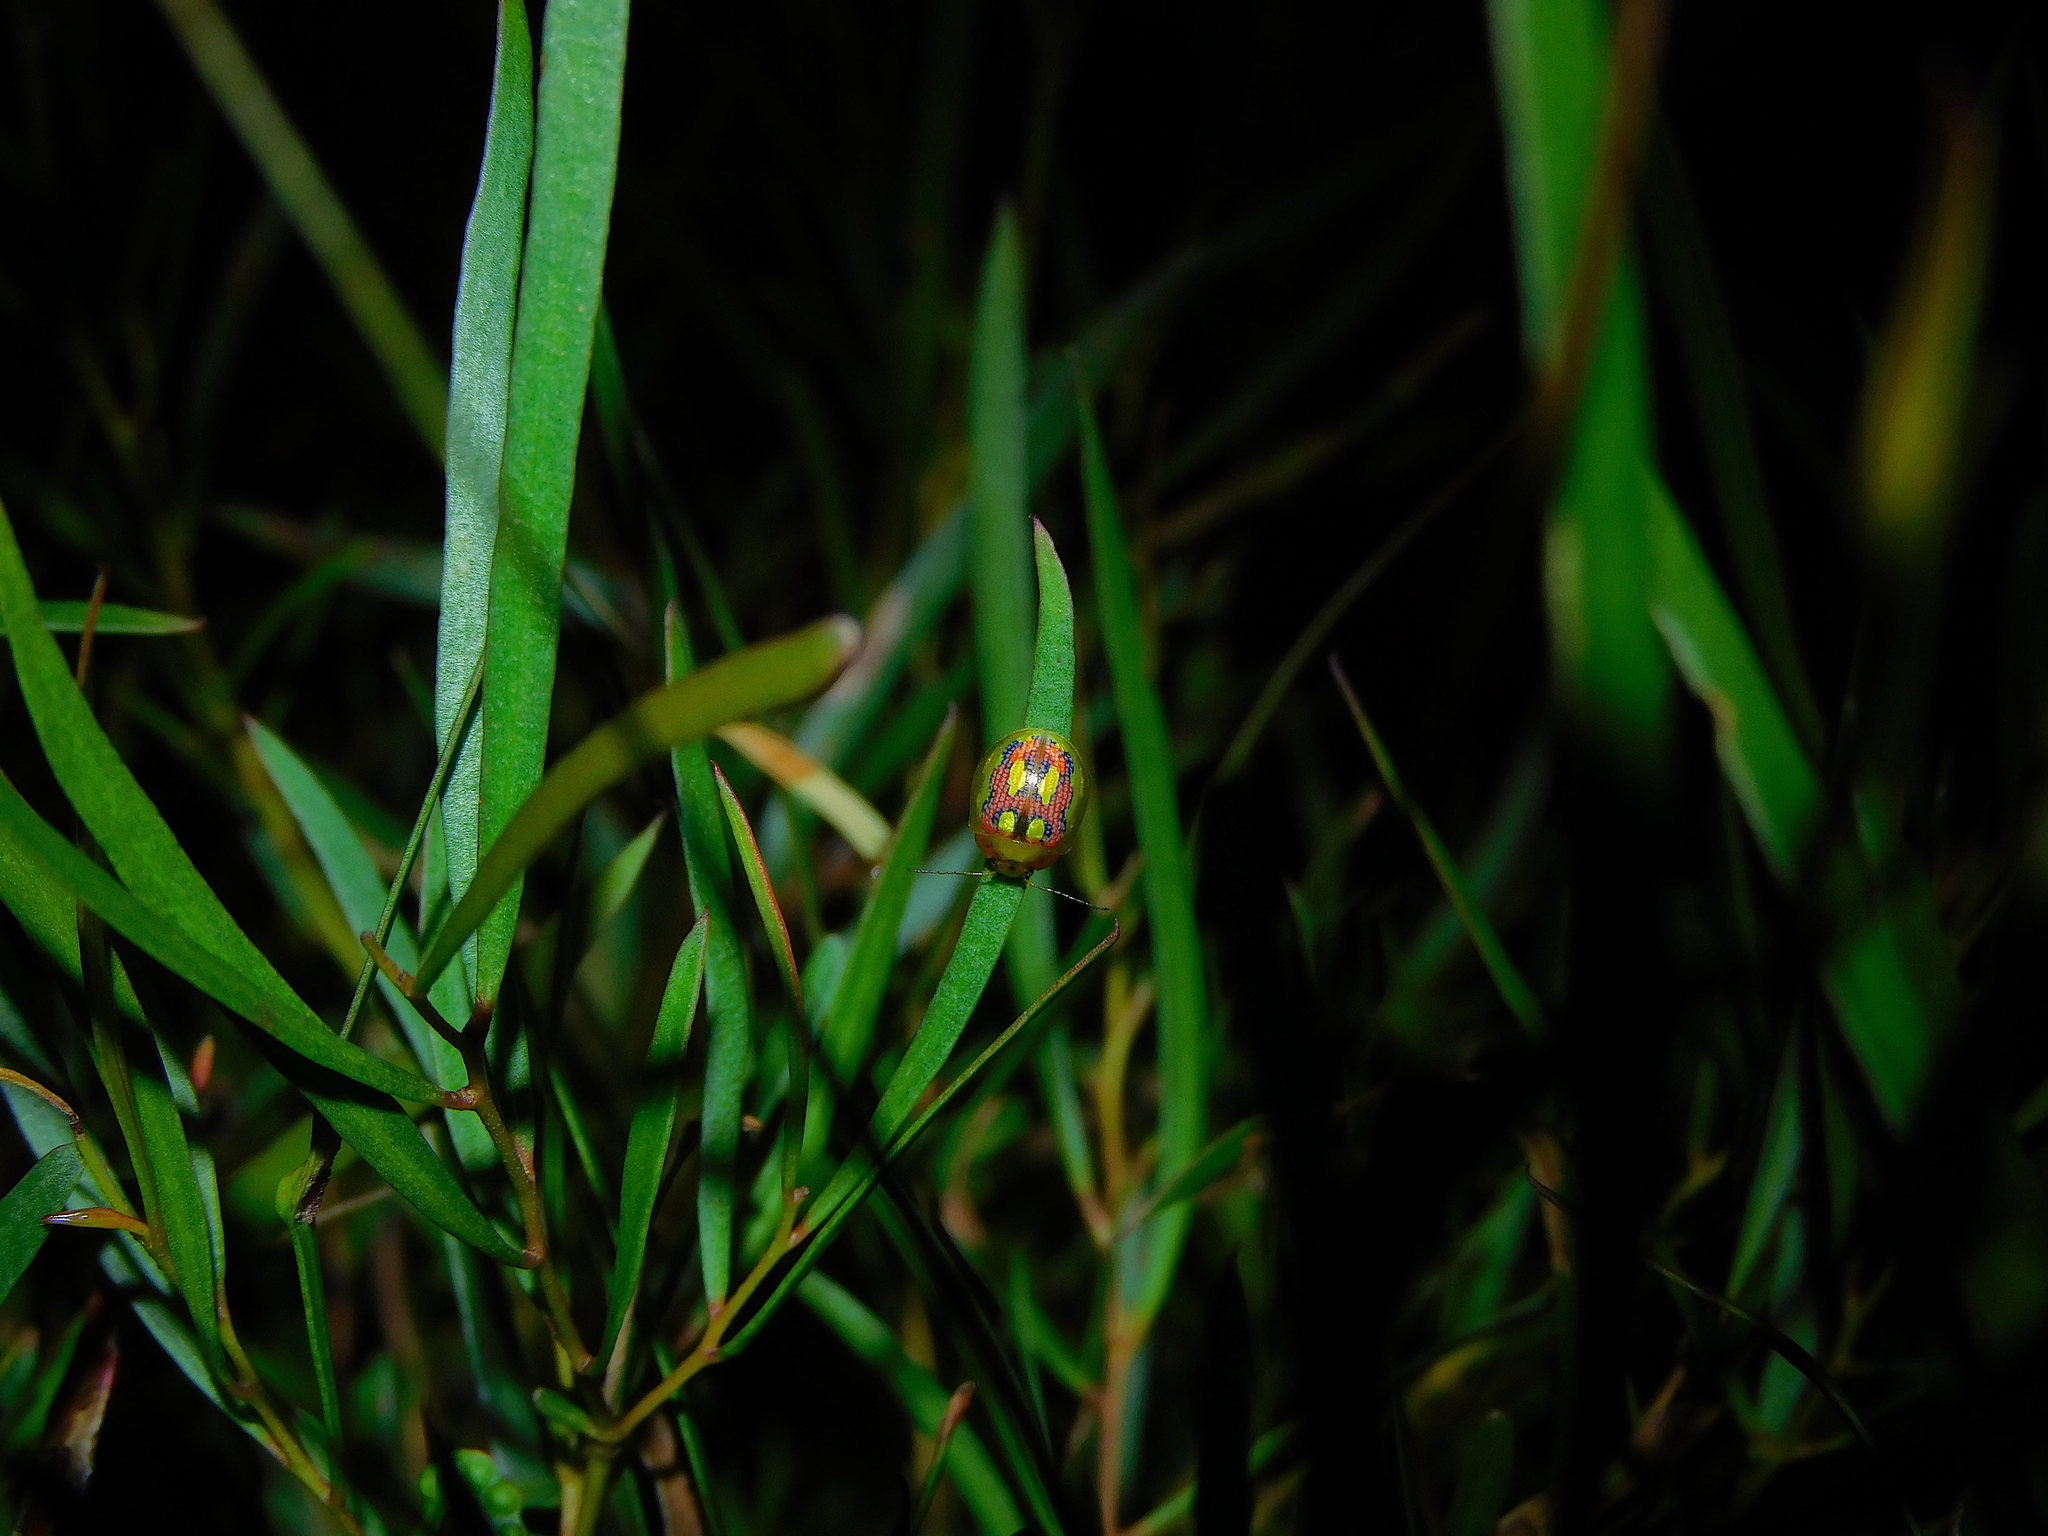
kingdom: Animalia
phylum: Arthropoda
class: Insecta
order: Coleoptera
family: Chrysomelidae
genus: Paropsisterna
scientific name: Paropsisterna
